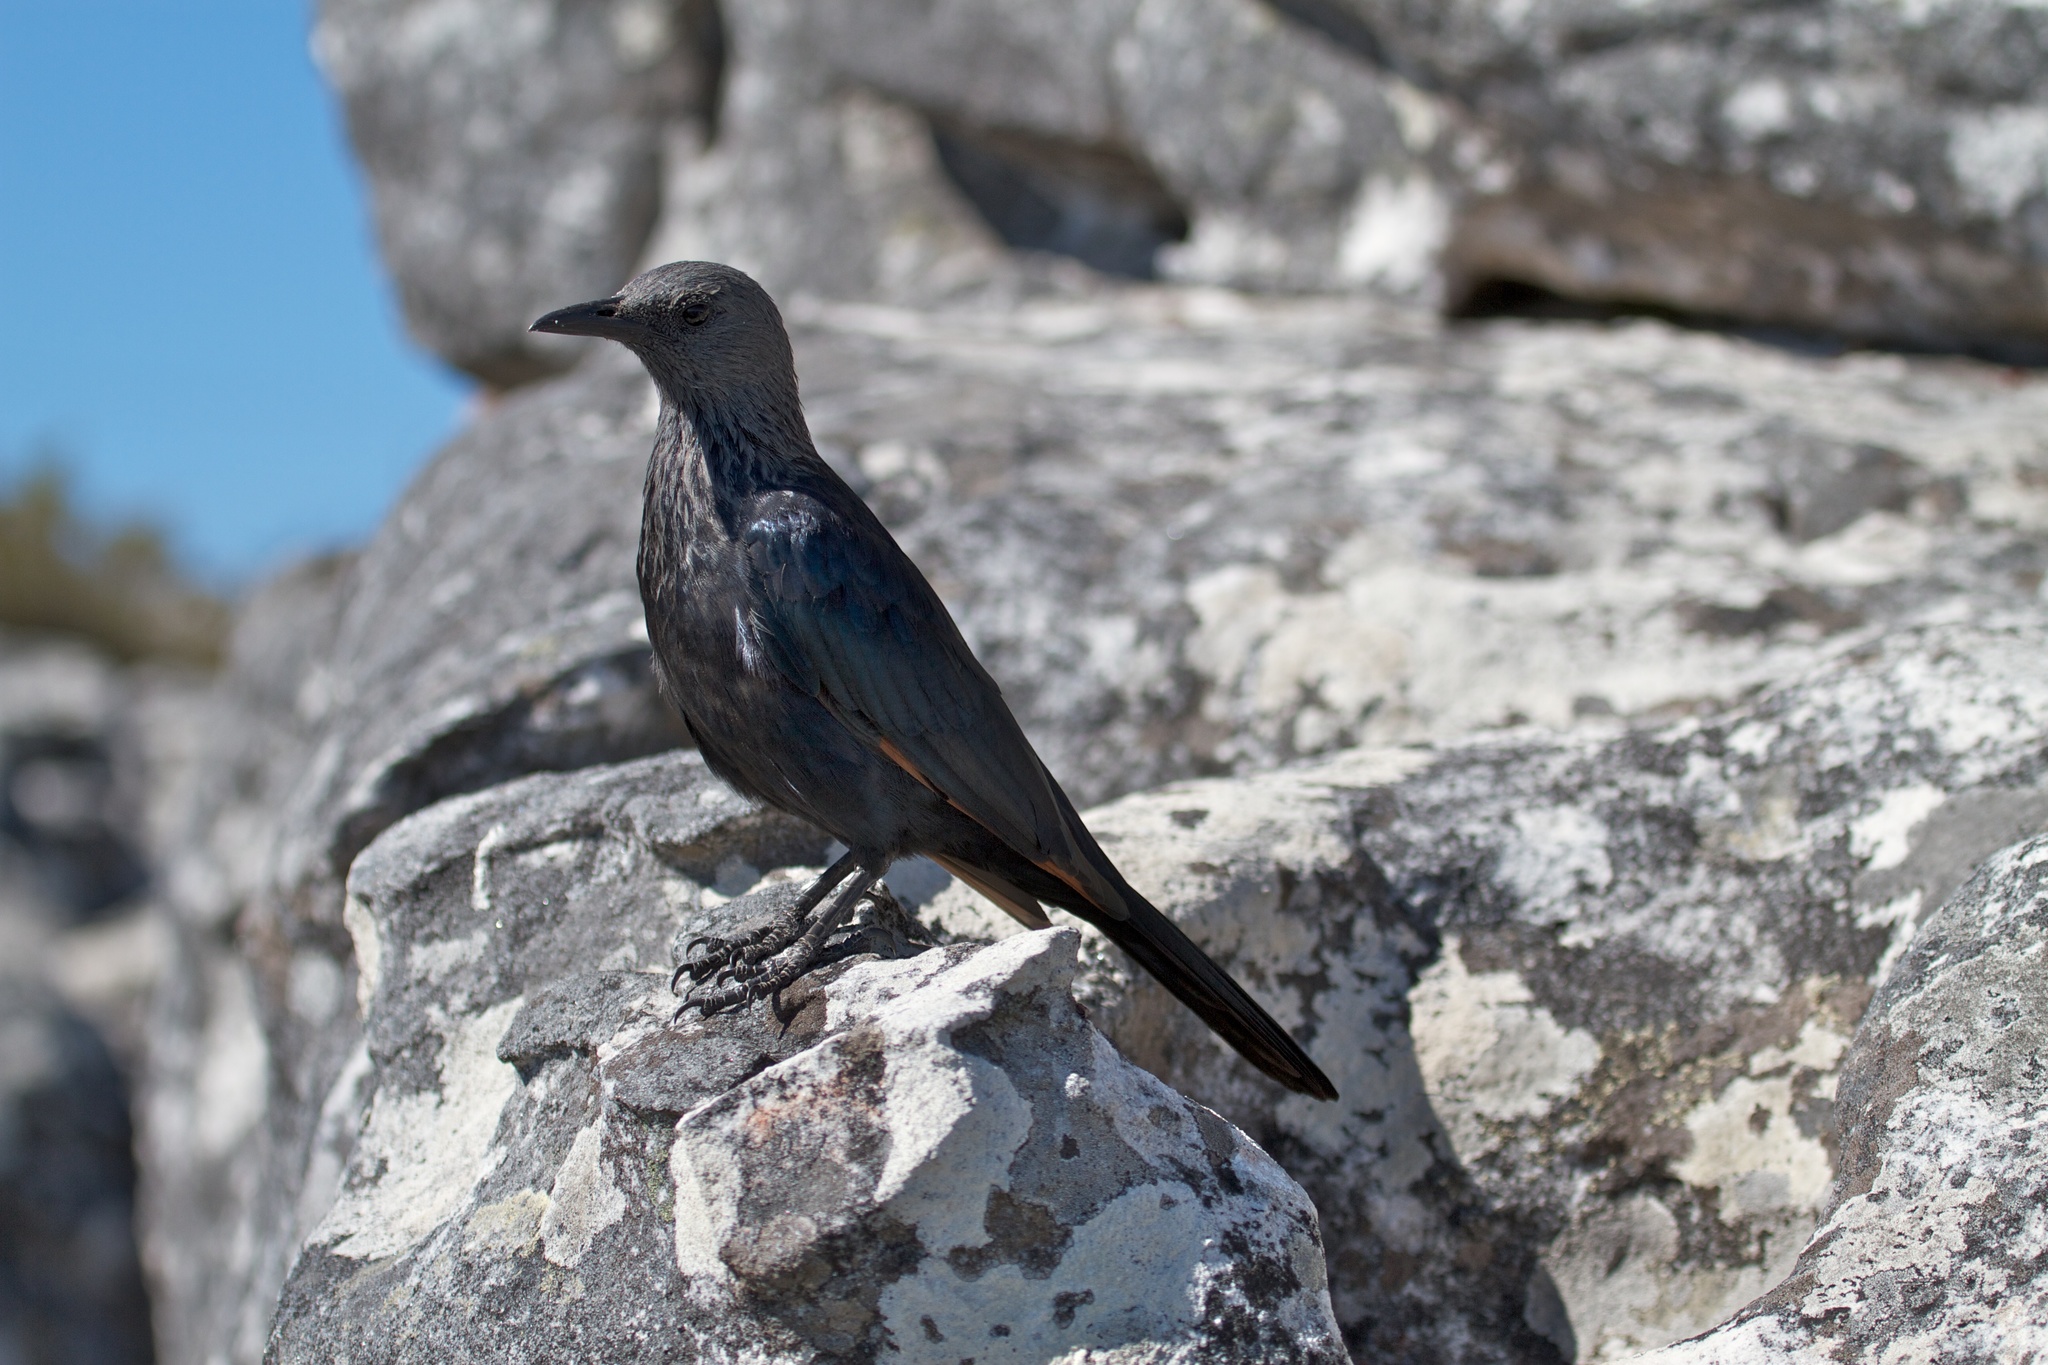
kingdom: Animalia
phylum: Chordata
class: Aves
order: Passeriformes
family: Sturnidae
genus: Onychognathus
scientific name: Onychognathus morio
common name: Red-winged starling
